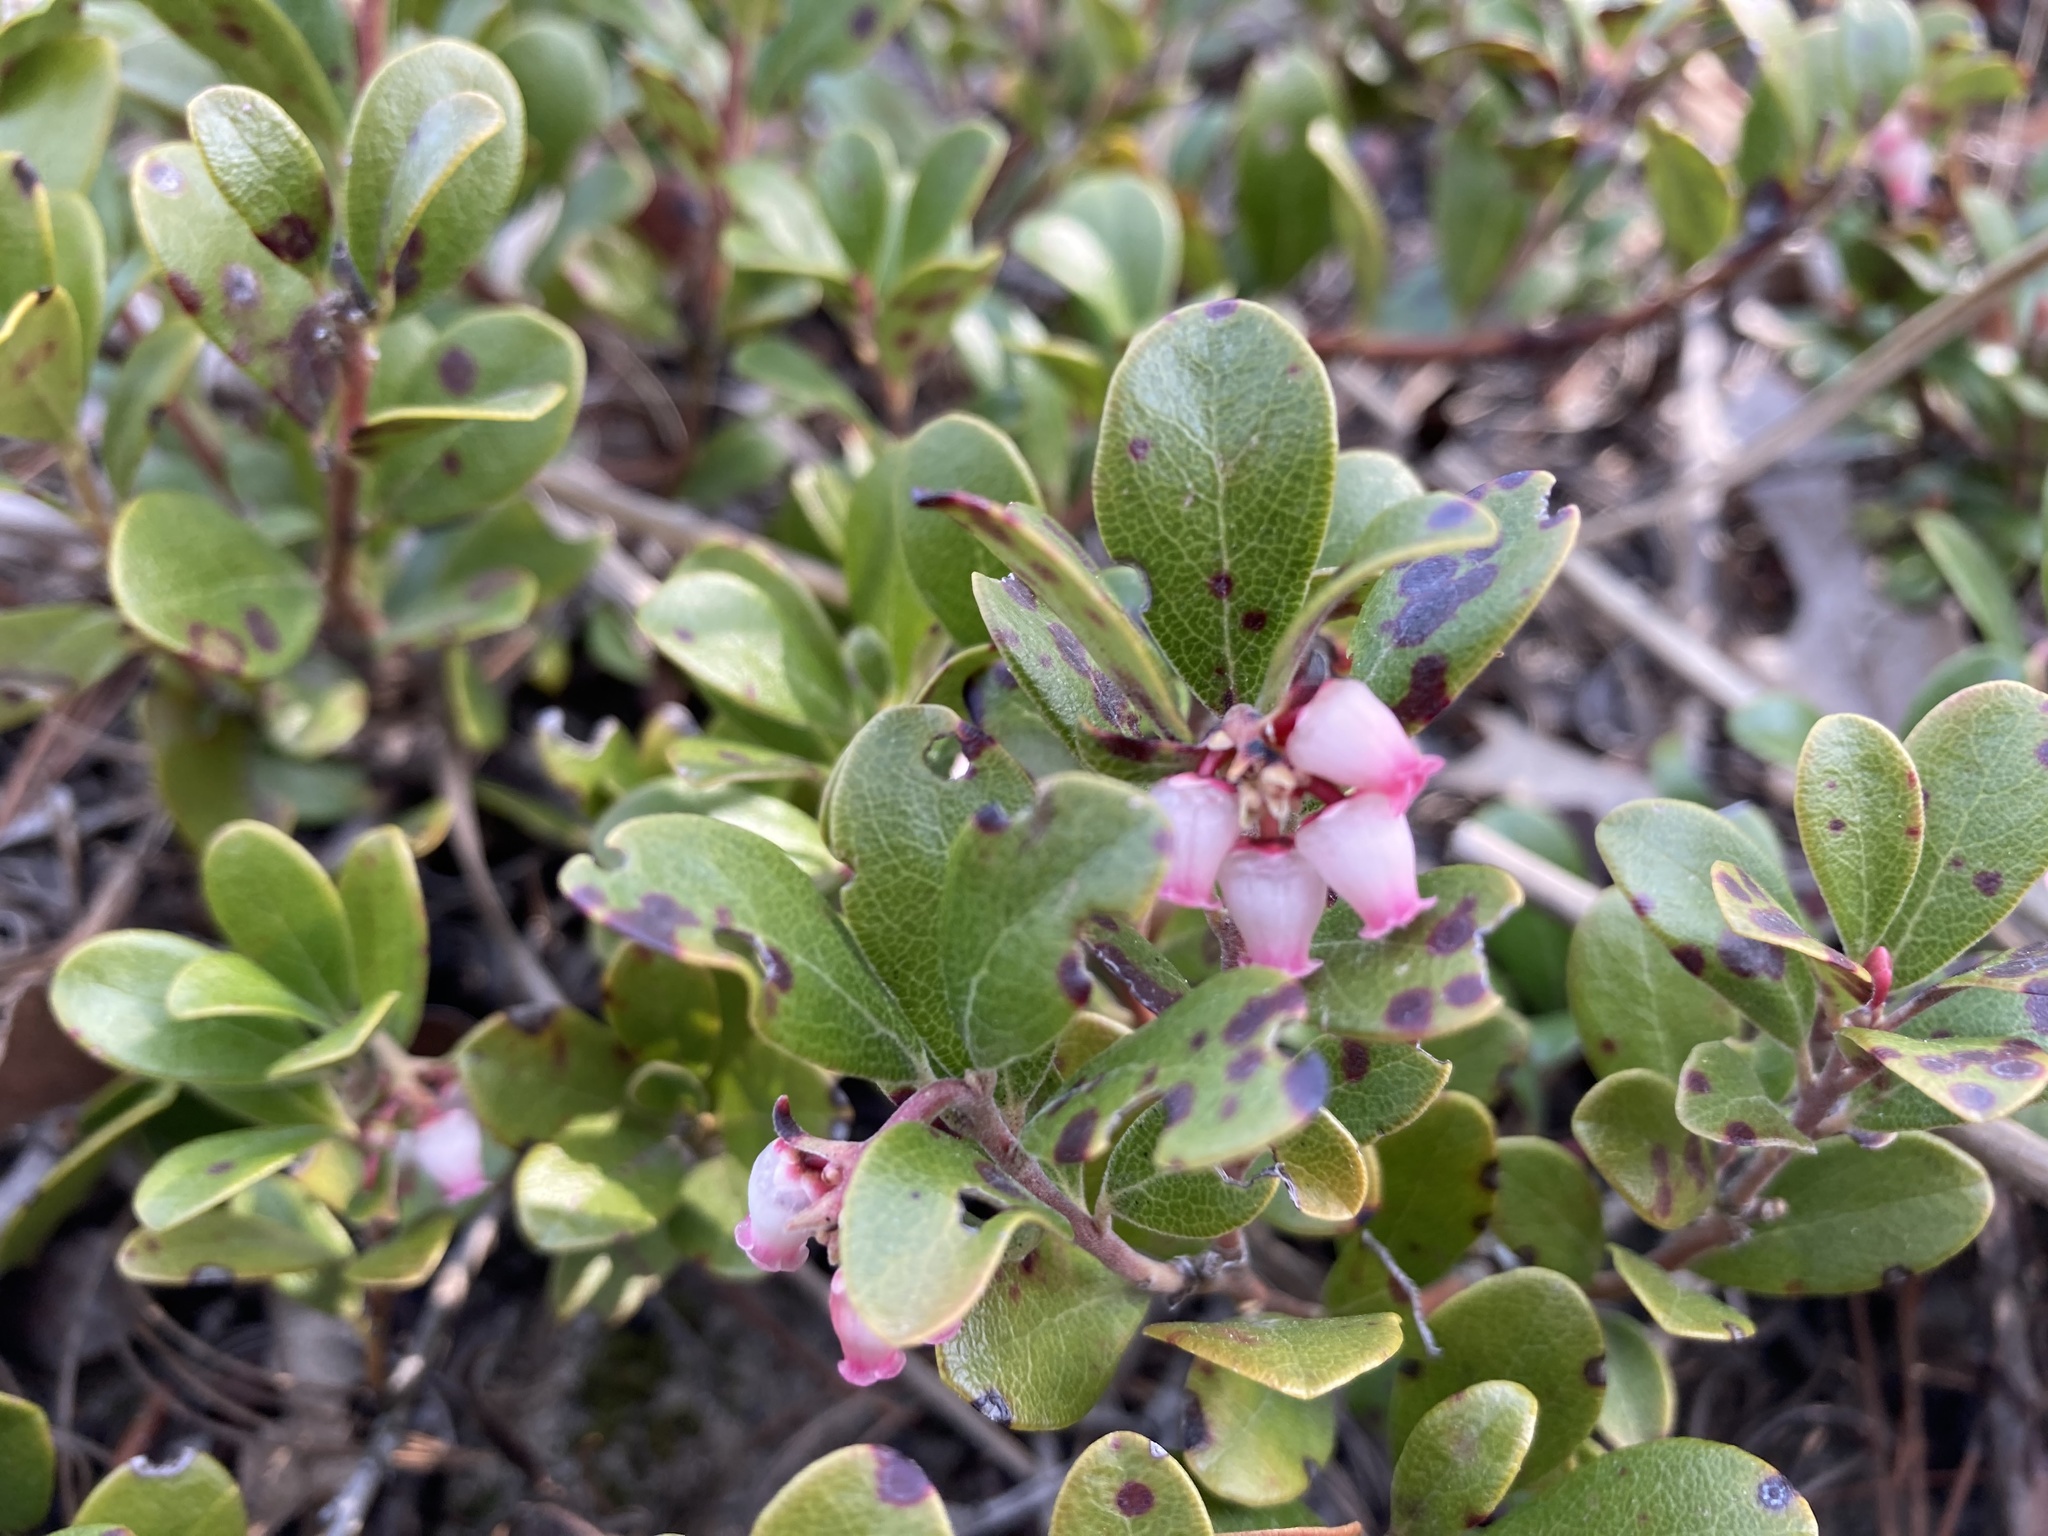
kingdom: Plantae
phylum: Tracheophyta
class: Magnoliopsida
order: Ericales
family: Ericaceae
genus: Arctostaphylos
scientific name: Arctostaphylos uva-ursi
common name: Bearberry
